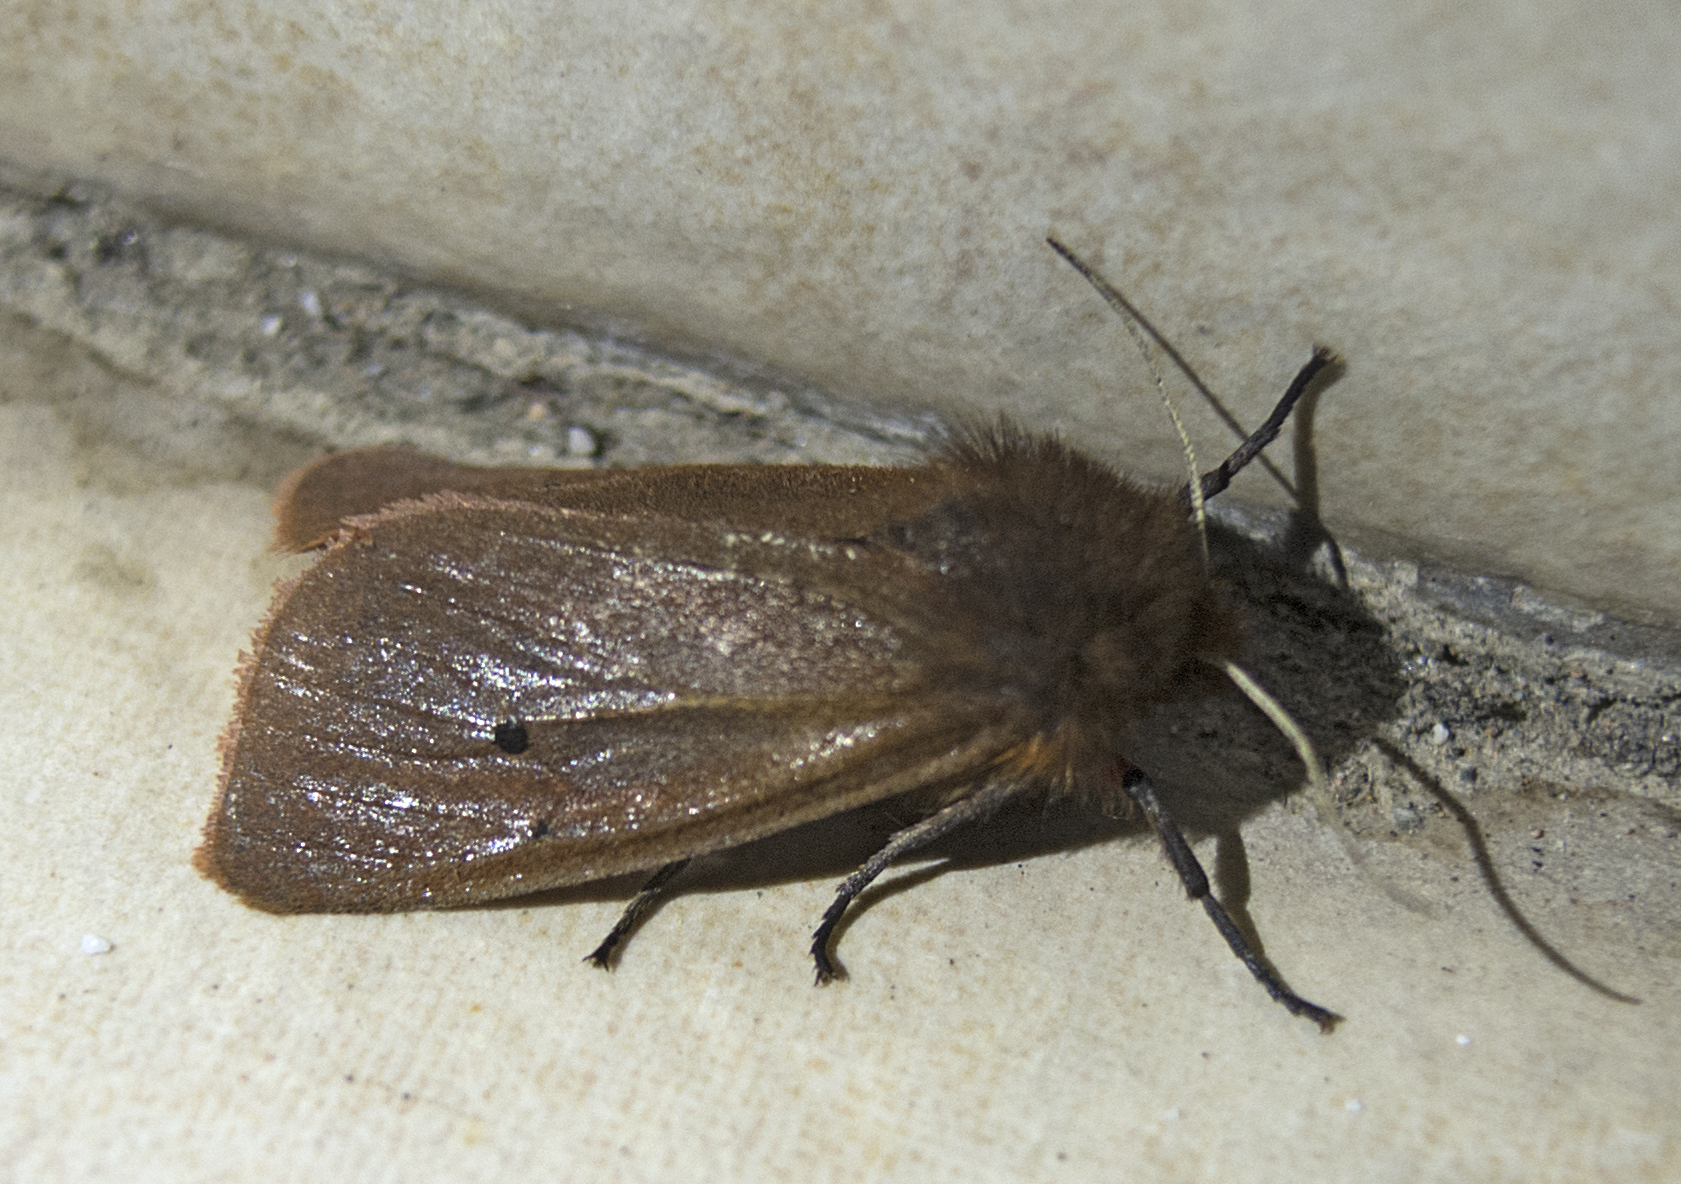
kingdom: Animalia
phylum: Arthropoda
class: Insecta
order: Lepidoptera
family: Erebidae
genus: Phragmatobia
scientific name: Phragmatobia fuliginosa
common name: Ruby tiger
